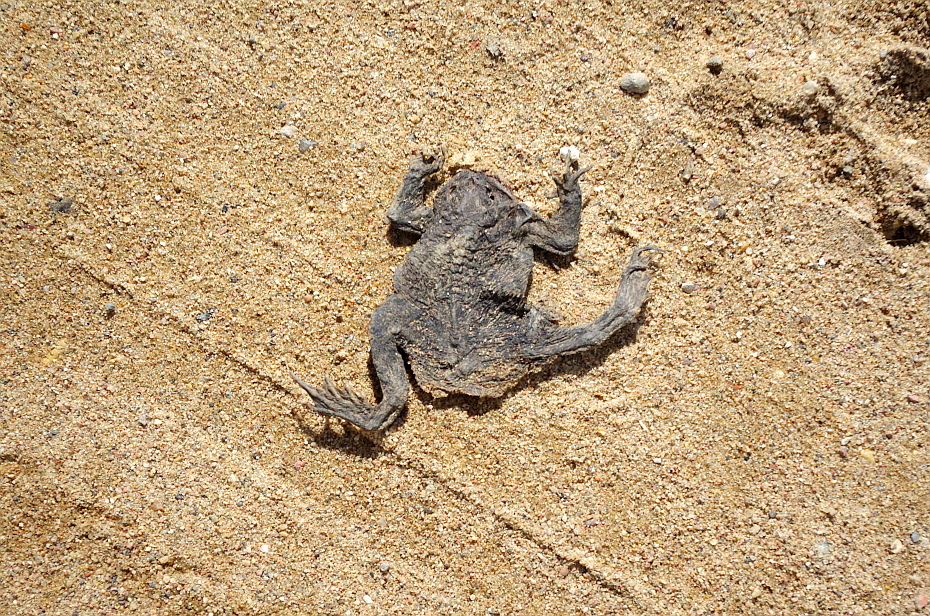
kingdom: Animalia
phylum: Chordata
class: Amphibia
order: Anura
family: Bufonidae
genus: Bufo
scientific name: Bufo bufo
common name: Common toad
